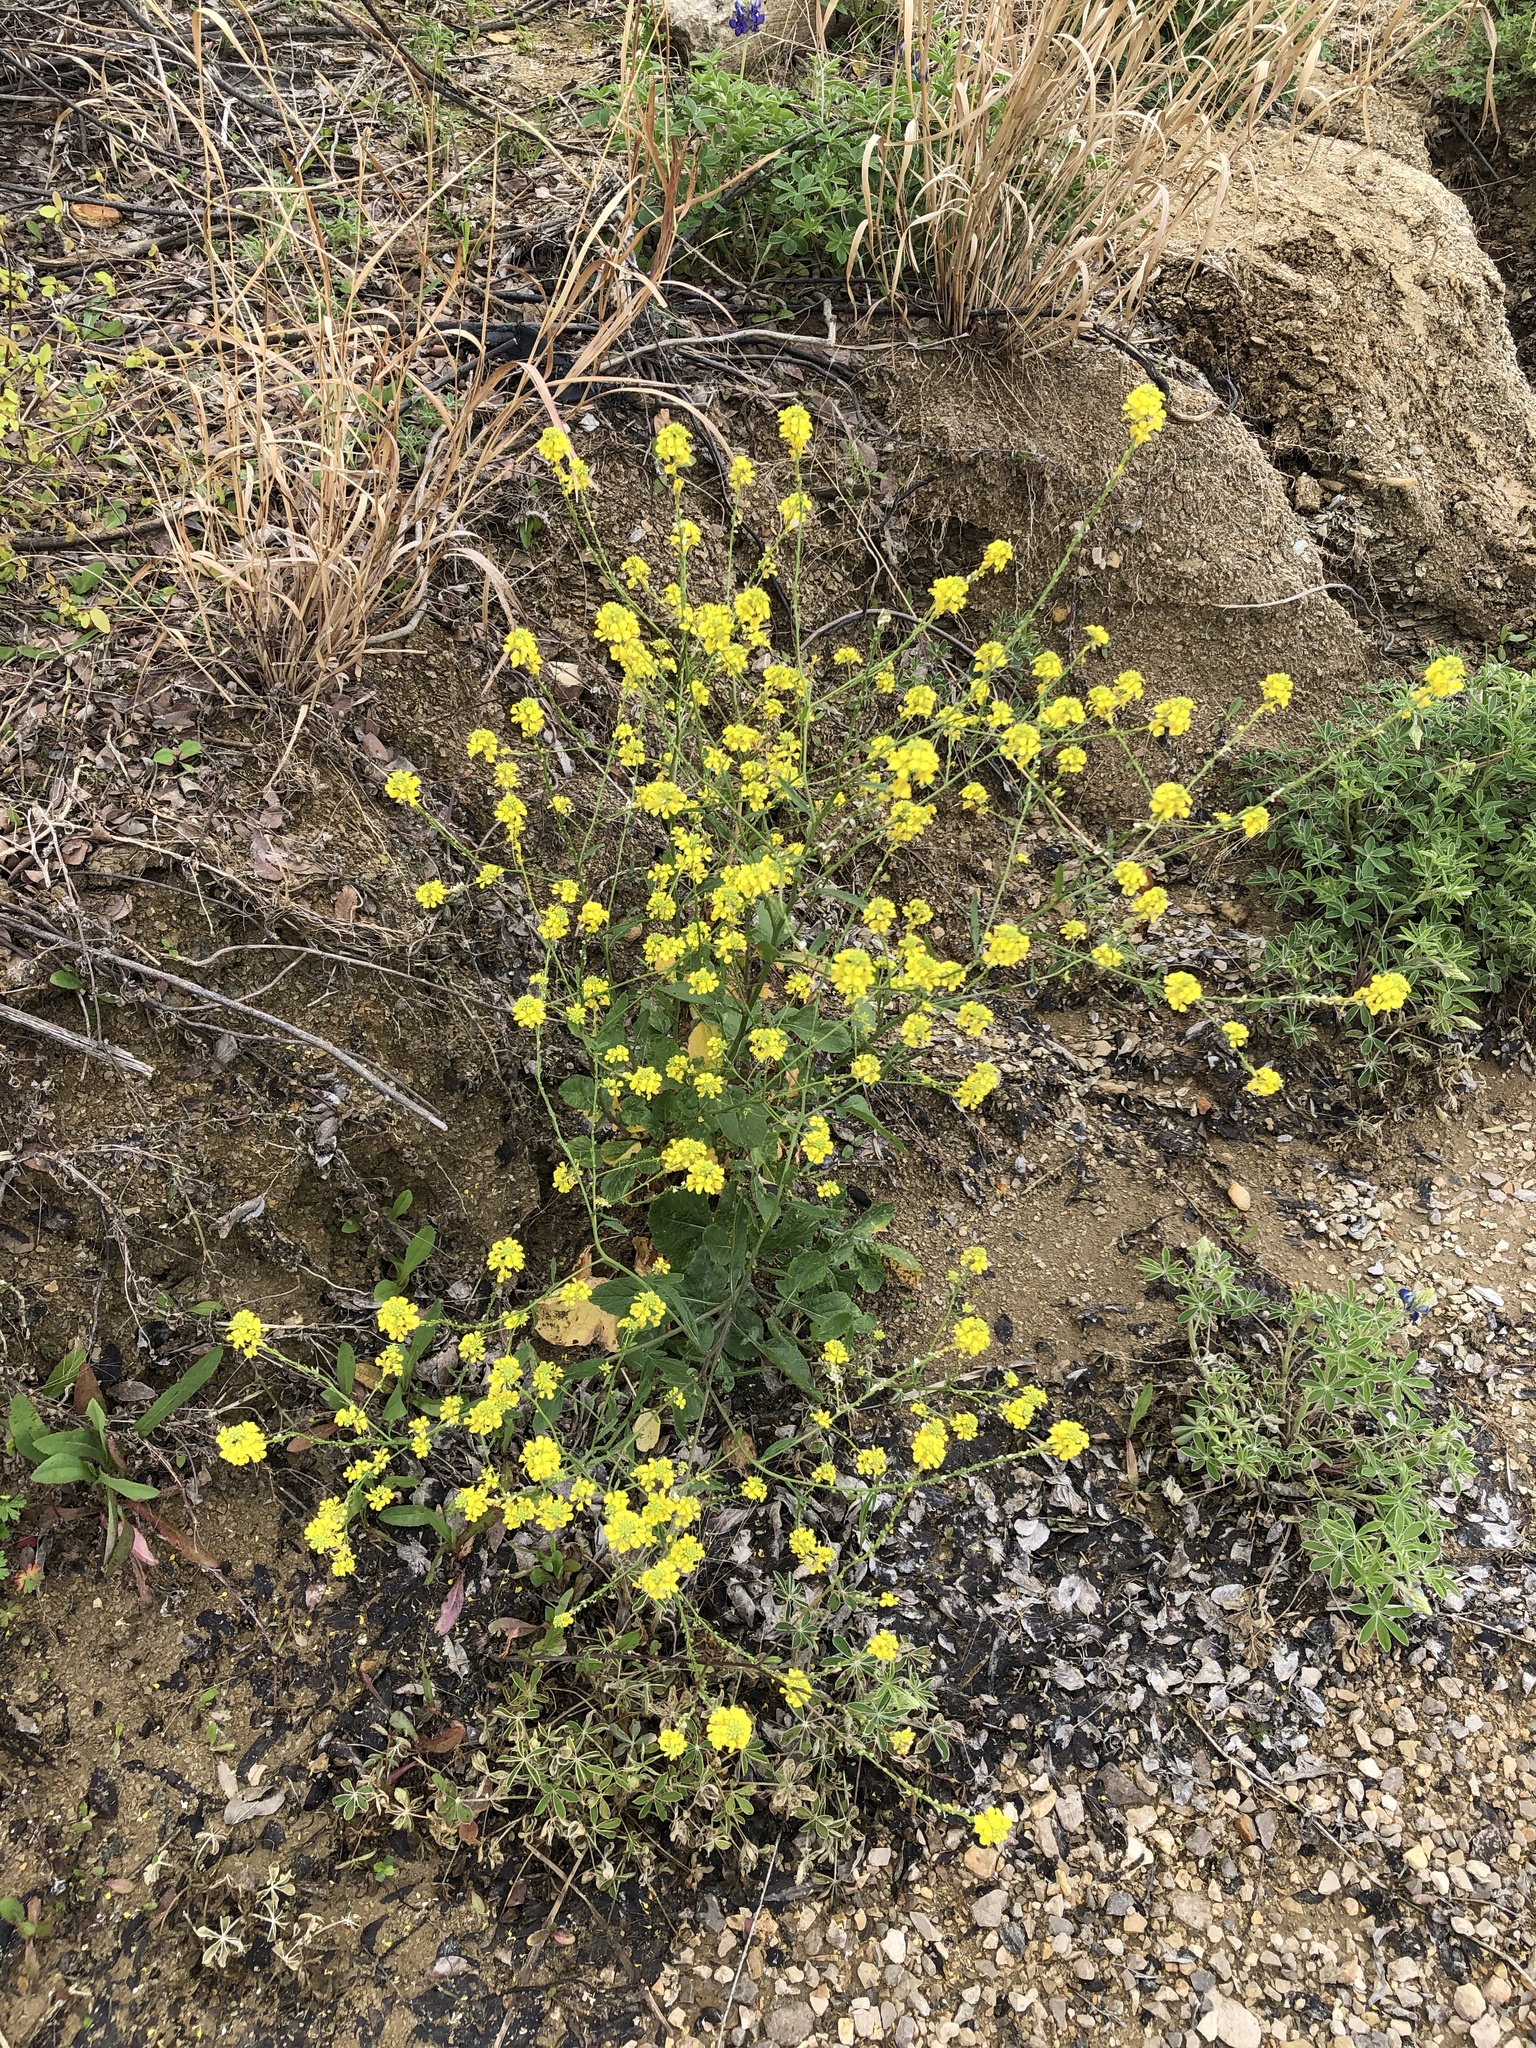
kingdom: Plantae
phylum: Tracheophyta
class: Magnoliopsida
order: Brassicales
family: Brassicaceae
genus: Rapistrum
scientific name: Rapistrum rugosum
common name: Annual bastardcabbage
